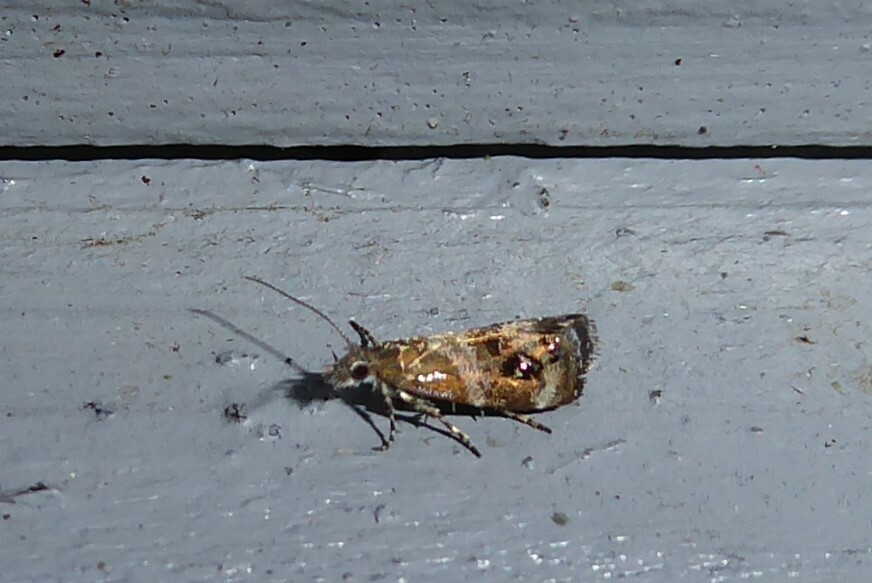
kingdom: Animalia
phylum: Arthropoda
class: Insecta
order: Lepidoptera
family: Choreutidae
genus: Tebenna
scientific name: Tebenna micalis
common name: Vagrant twitcher
